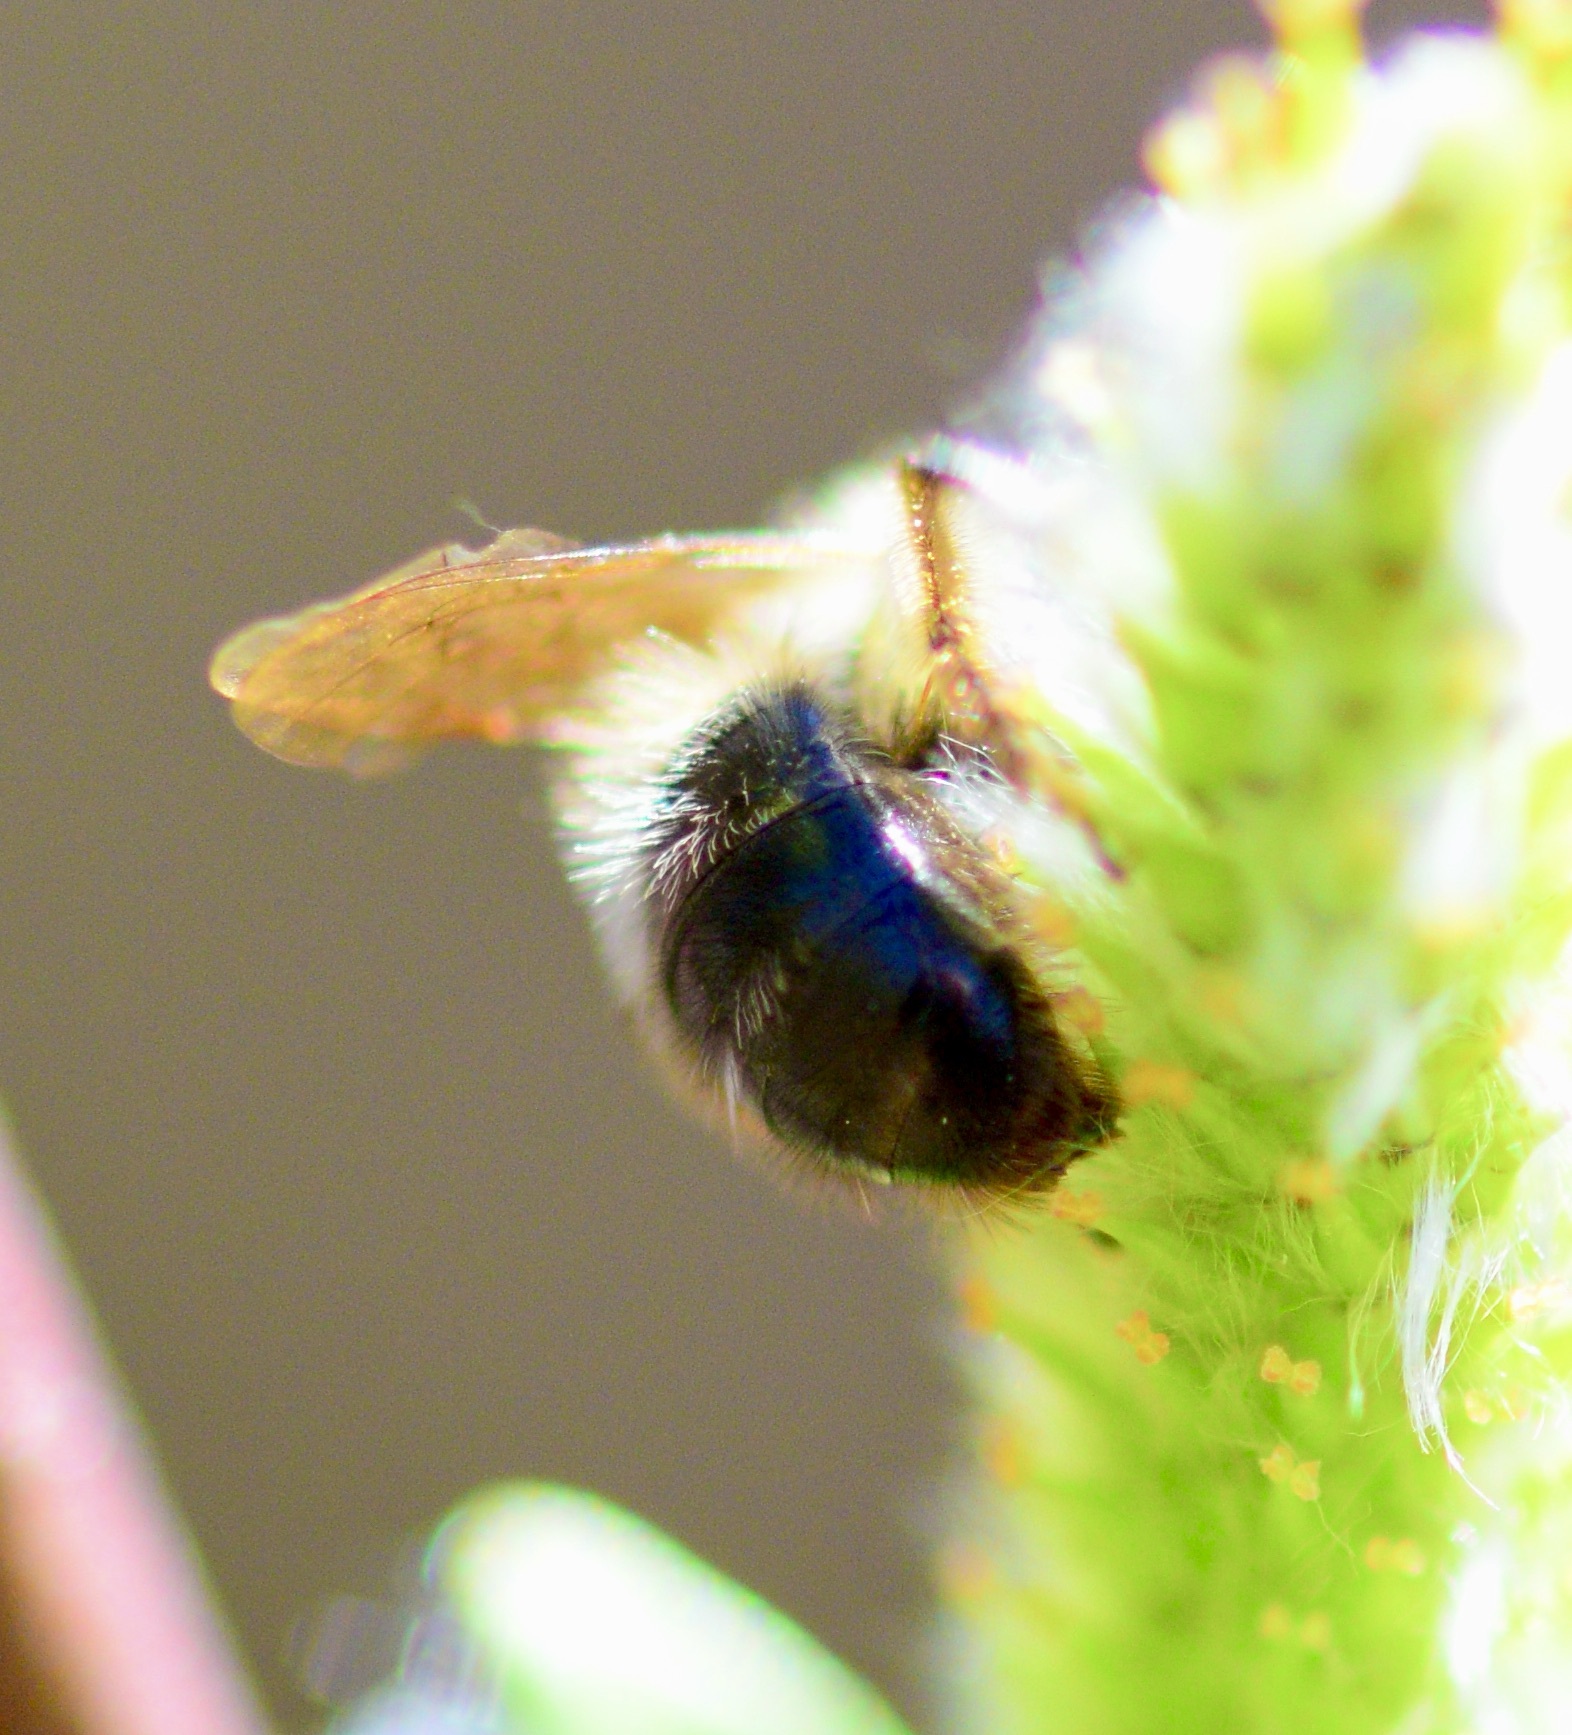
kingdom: Animalia
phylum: Arthropoda
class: Insecta
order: Hymenoptera
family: Andrenidae
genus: Andrena
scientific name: Andrena frigida
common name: Frigid mining bee
